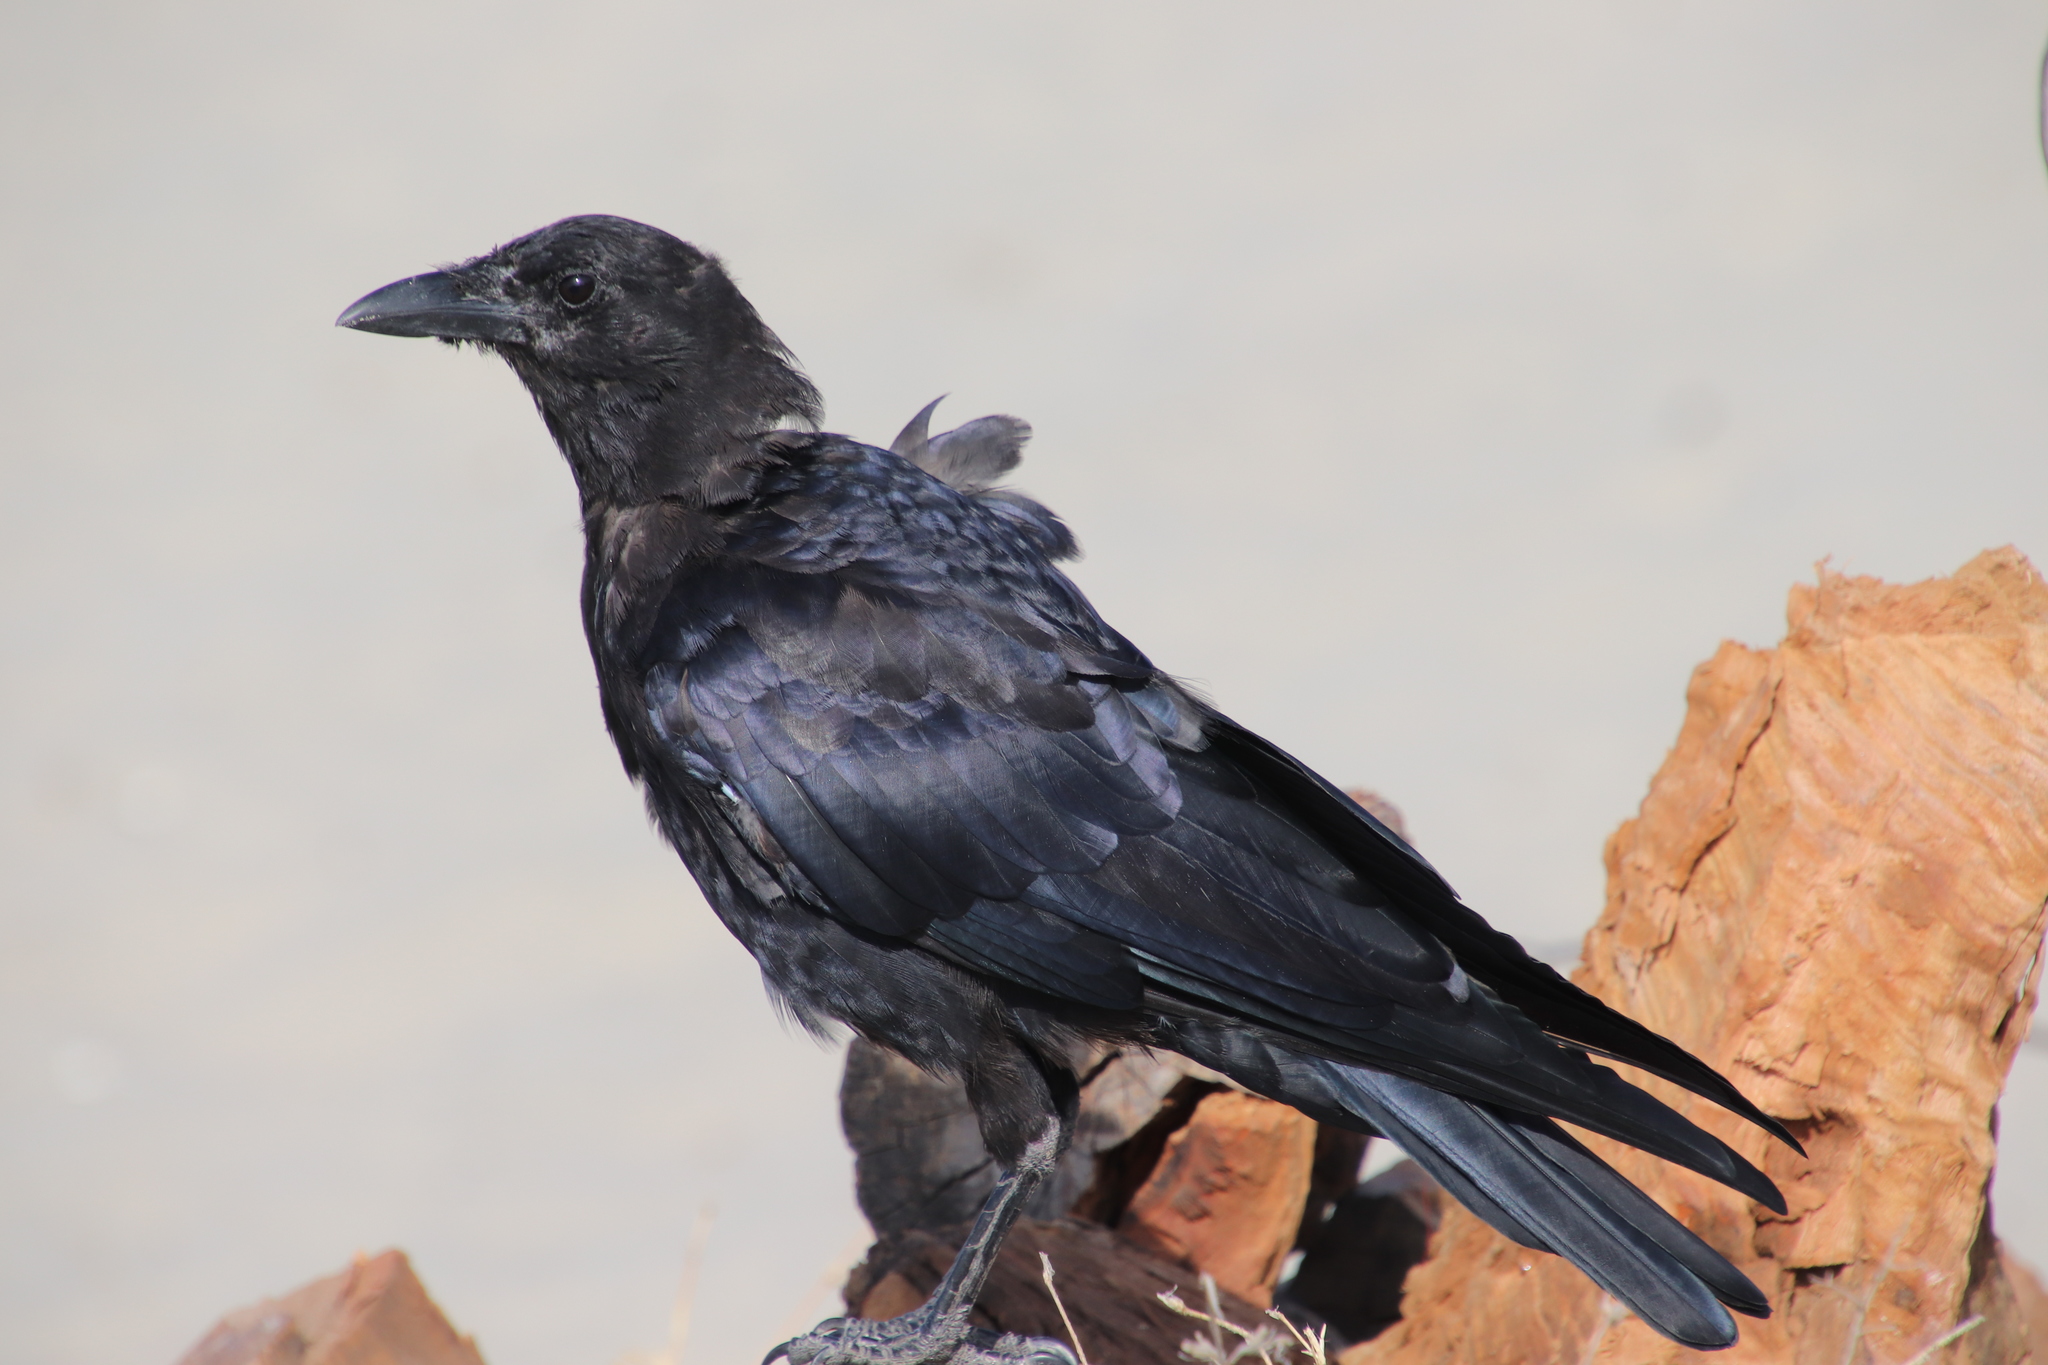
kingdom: Animalia
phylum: Chordata
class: Aves
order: Passeriformes
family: Corvidae
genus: Corvus
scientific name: Corvus brachyrhynchos
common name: American crow
